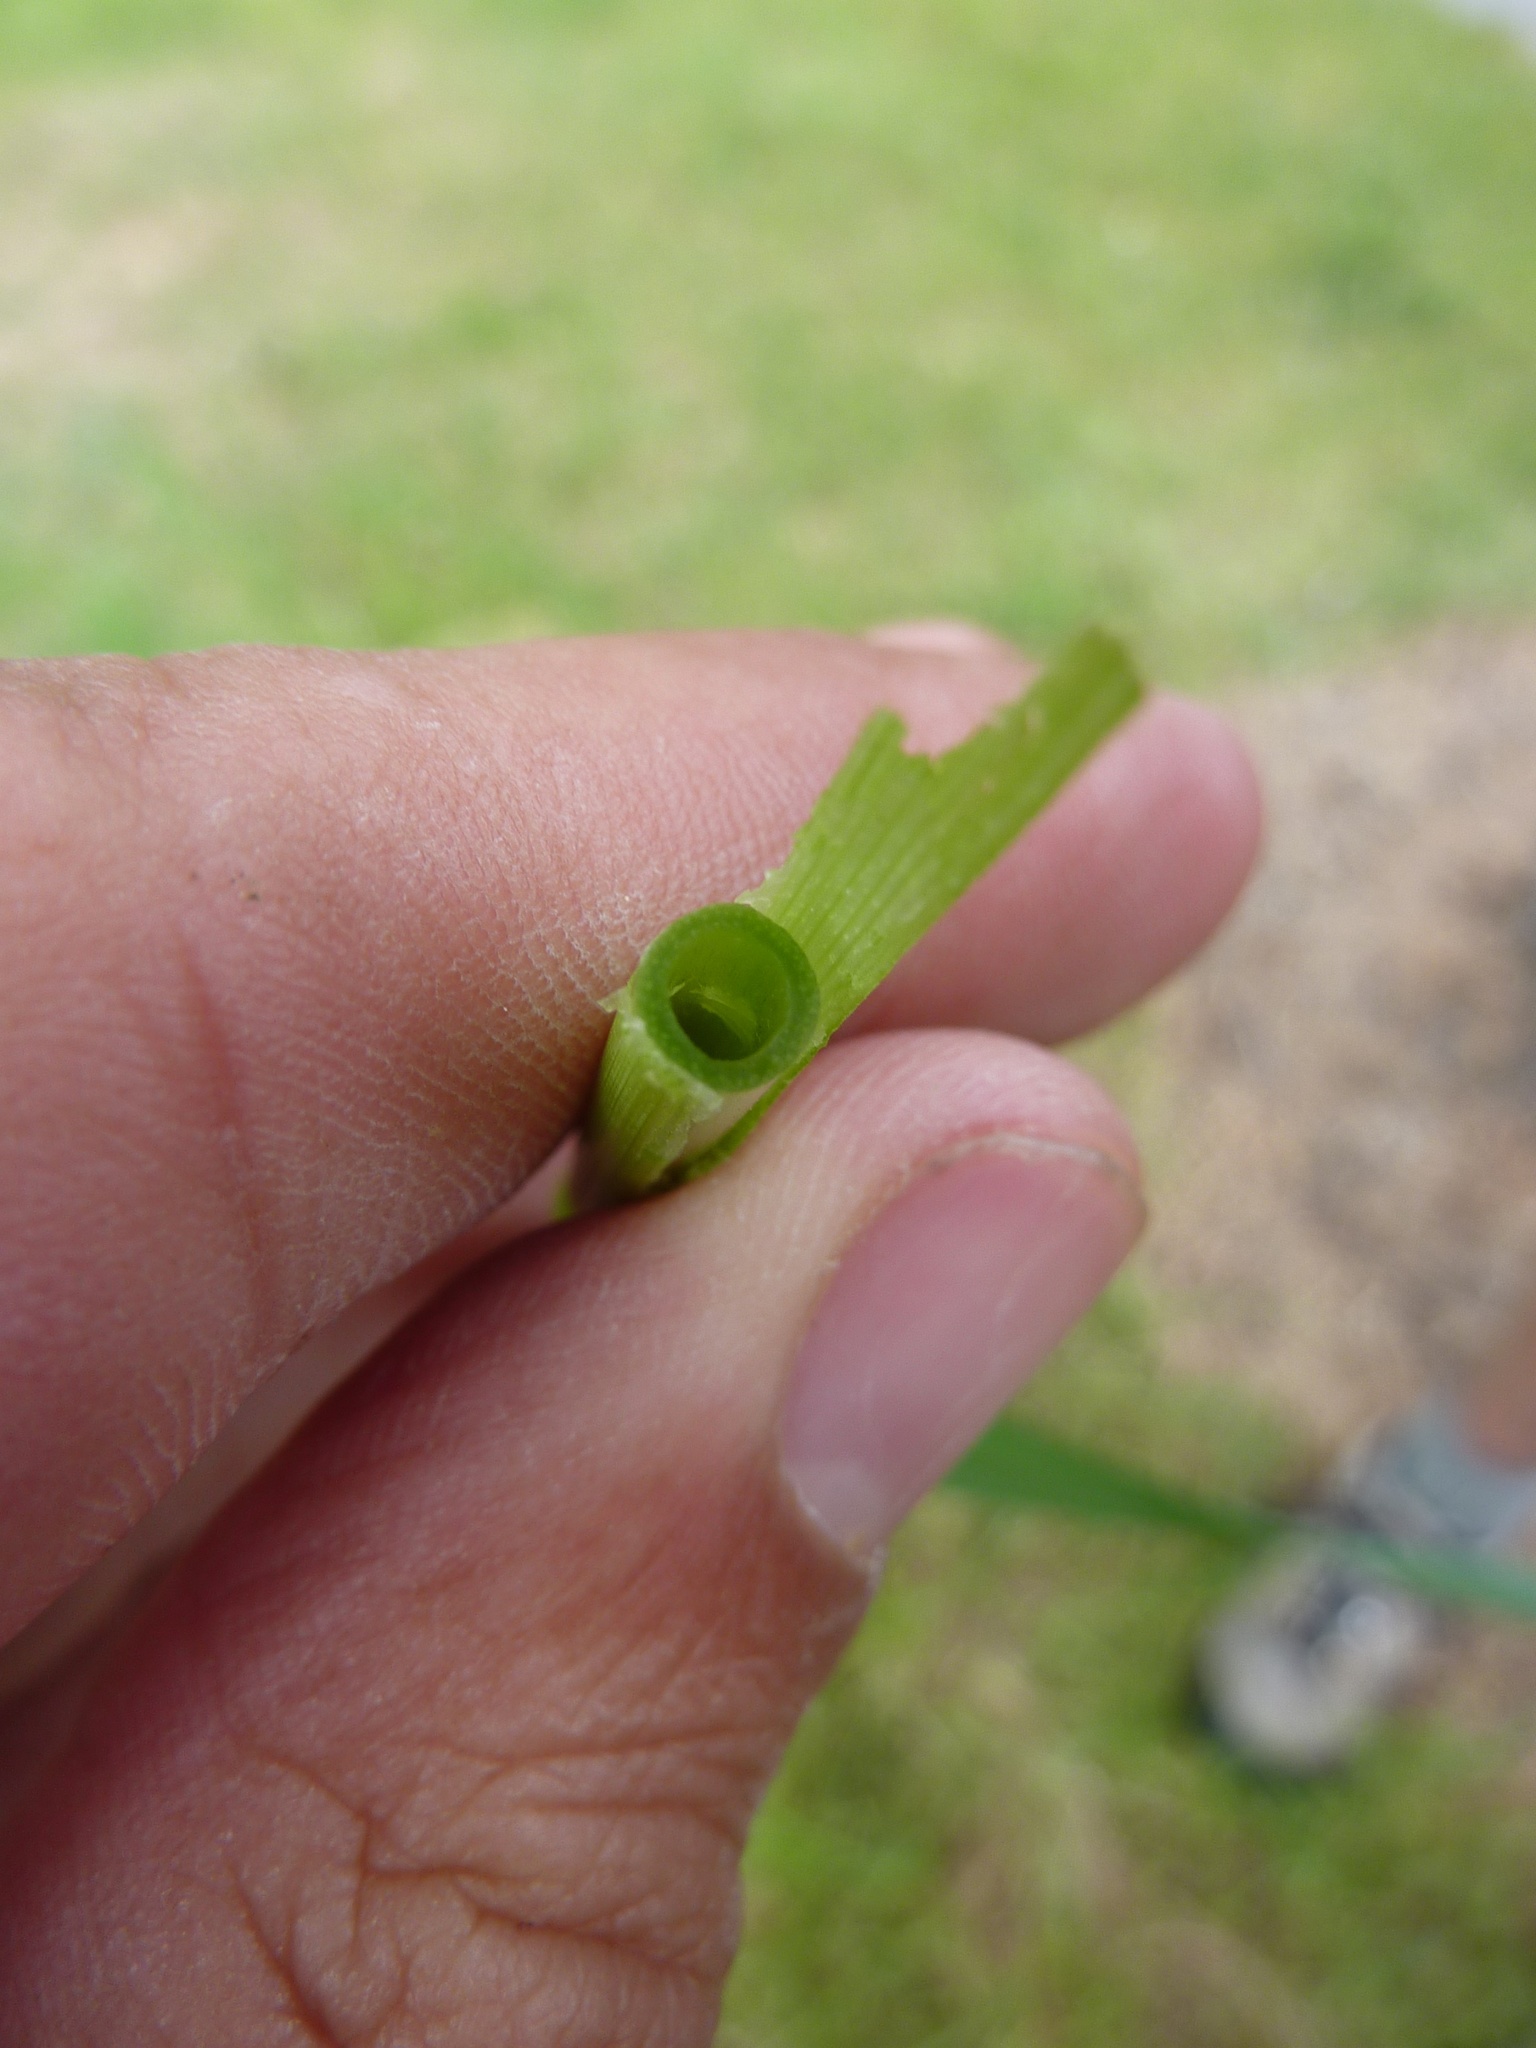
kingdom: Plantae
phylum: Tracheophyta
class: Liliopsida
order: Poales
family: Poaceae
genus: Phalaris
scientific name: Phalaris arundinacea
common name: Reed canary-grass
